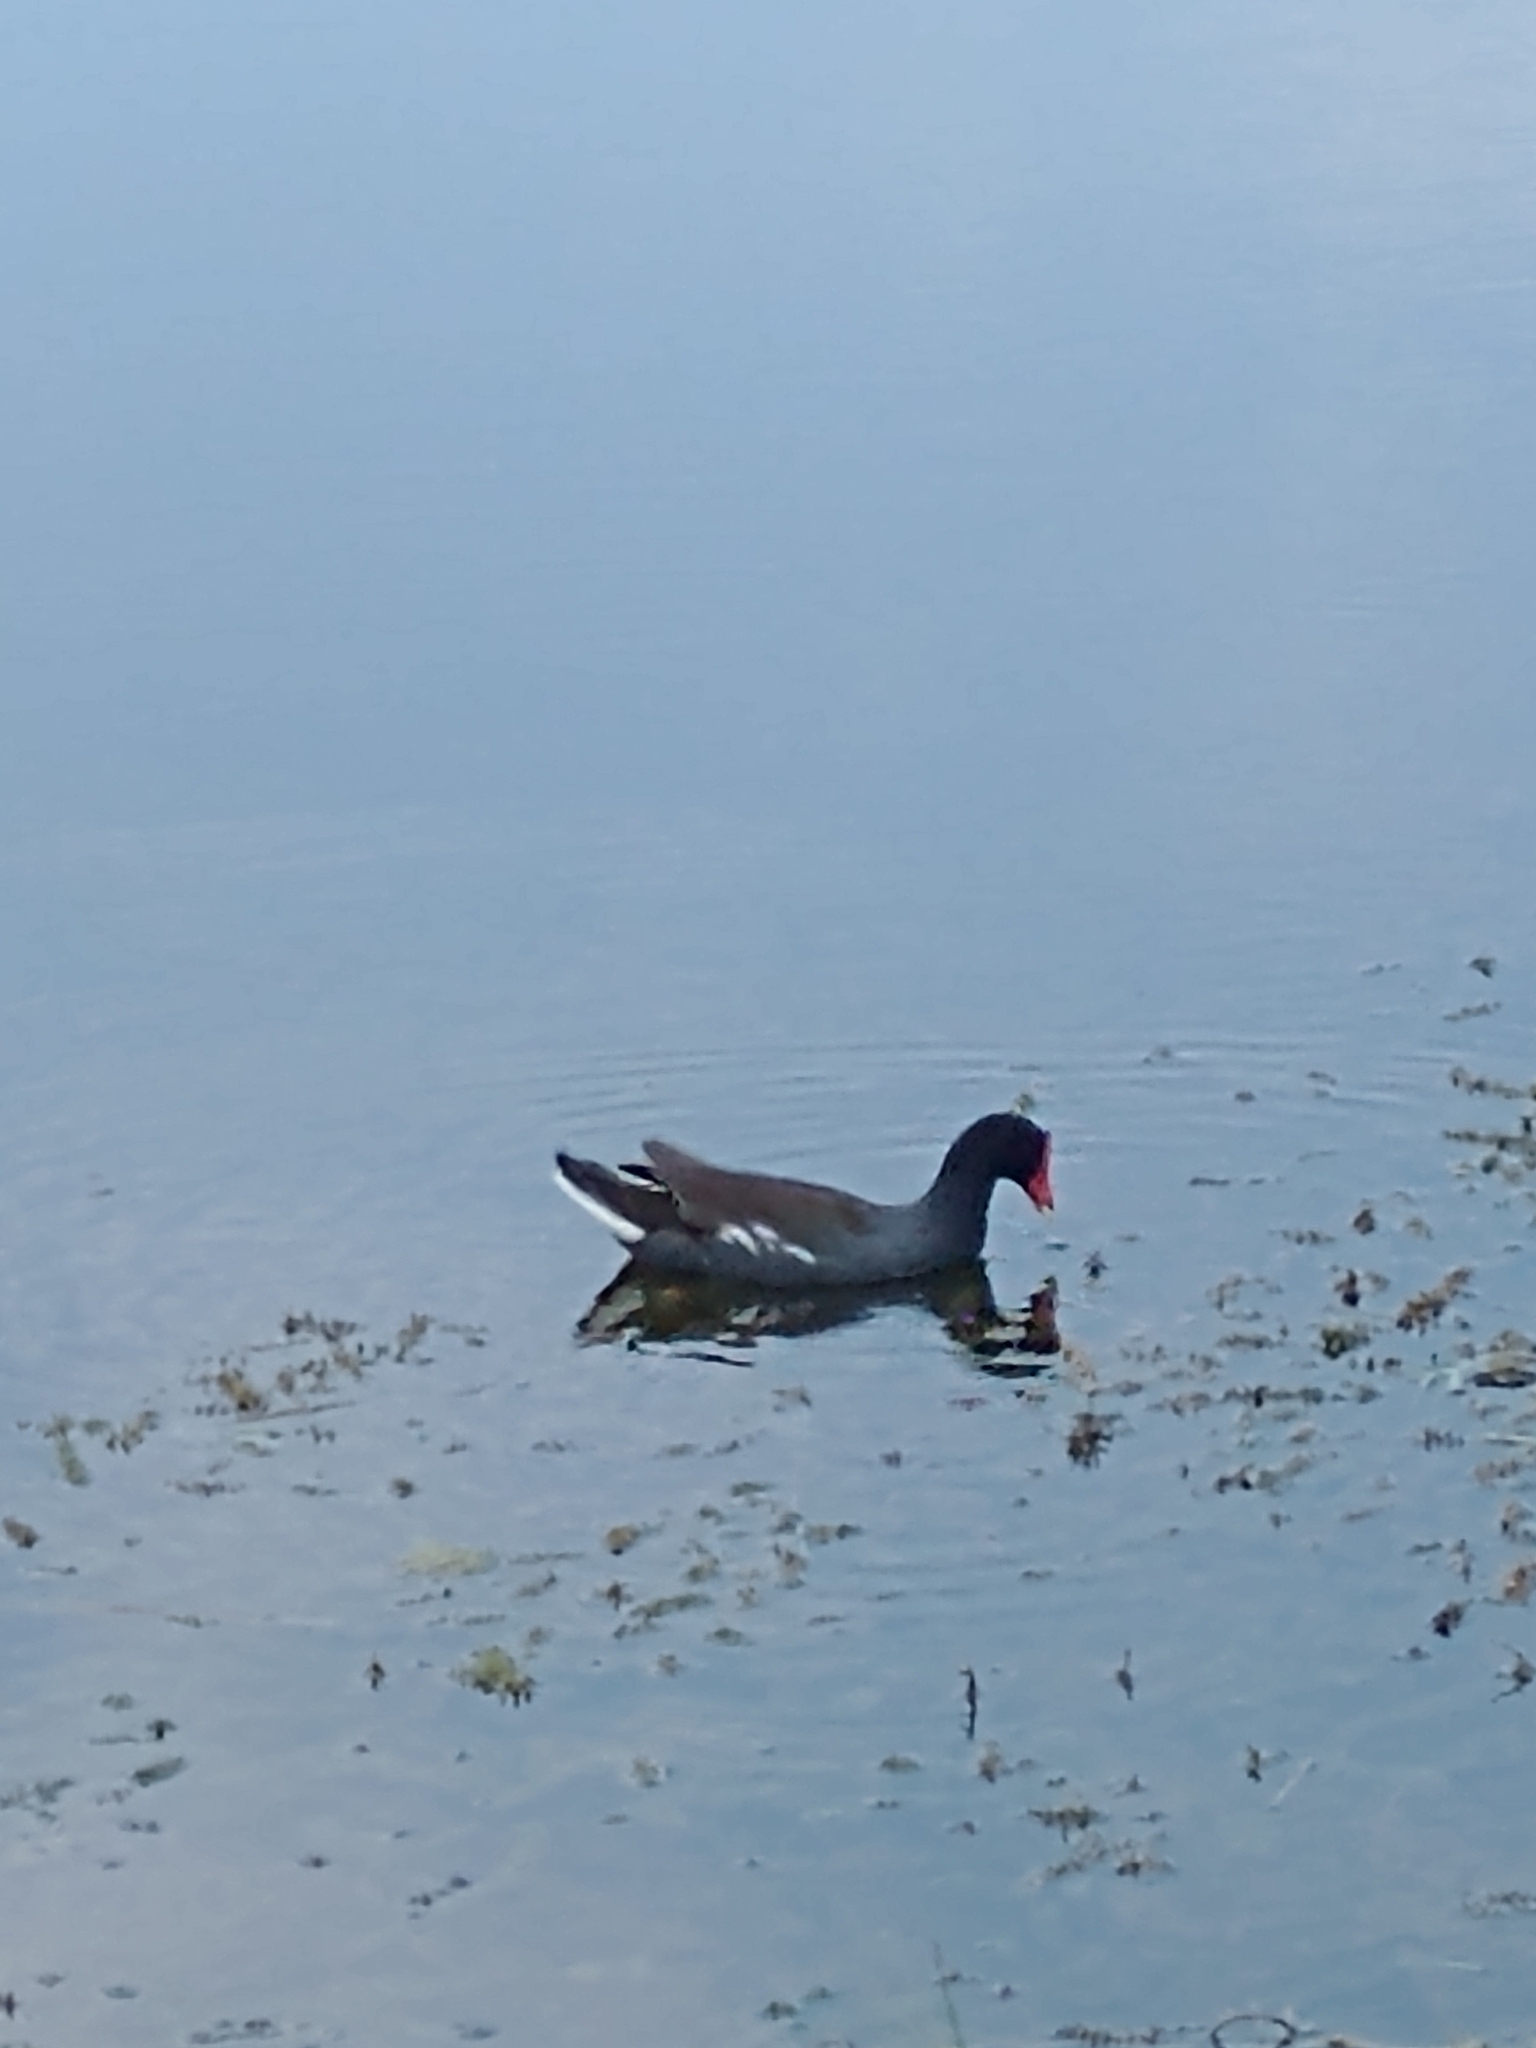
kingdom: Animalia
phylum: Chordata
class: Aves
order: Gruiformes
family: Rallidae
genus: Gallinula
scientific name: Gallinula chloropus
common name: Common moorhen
